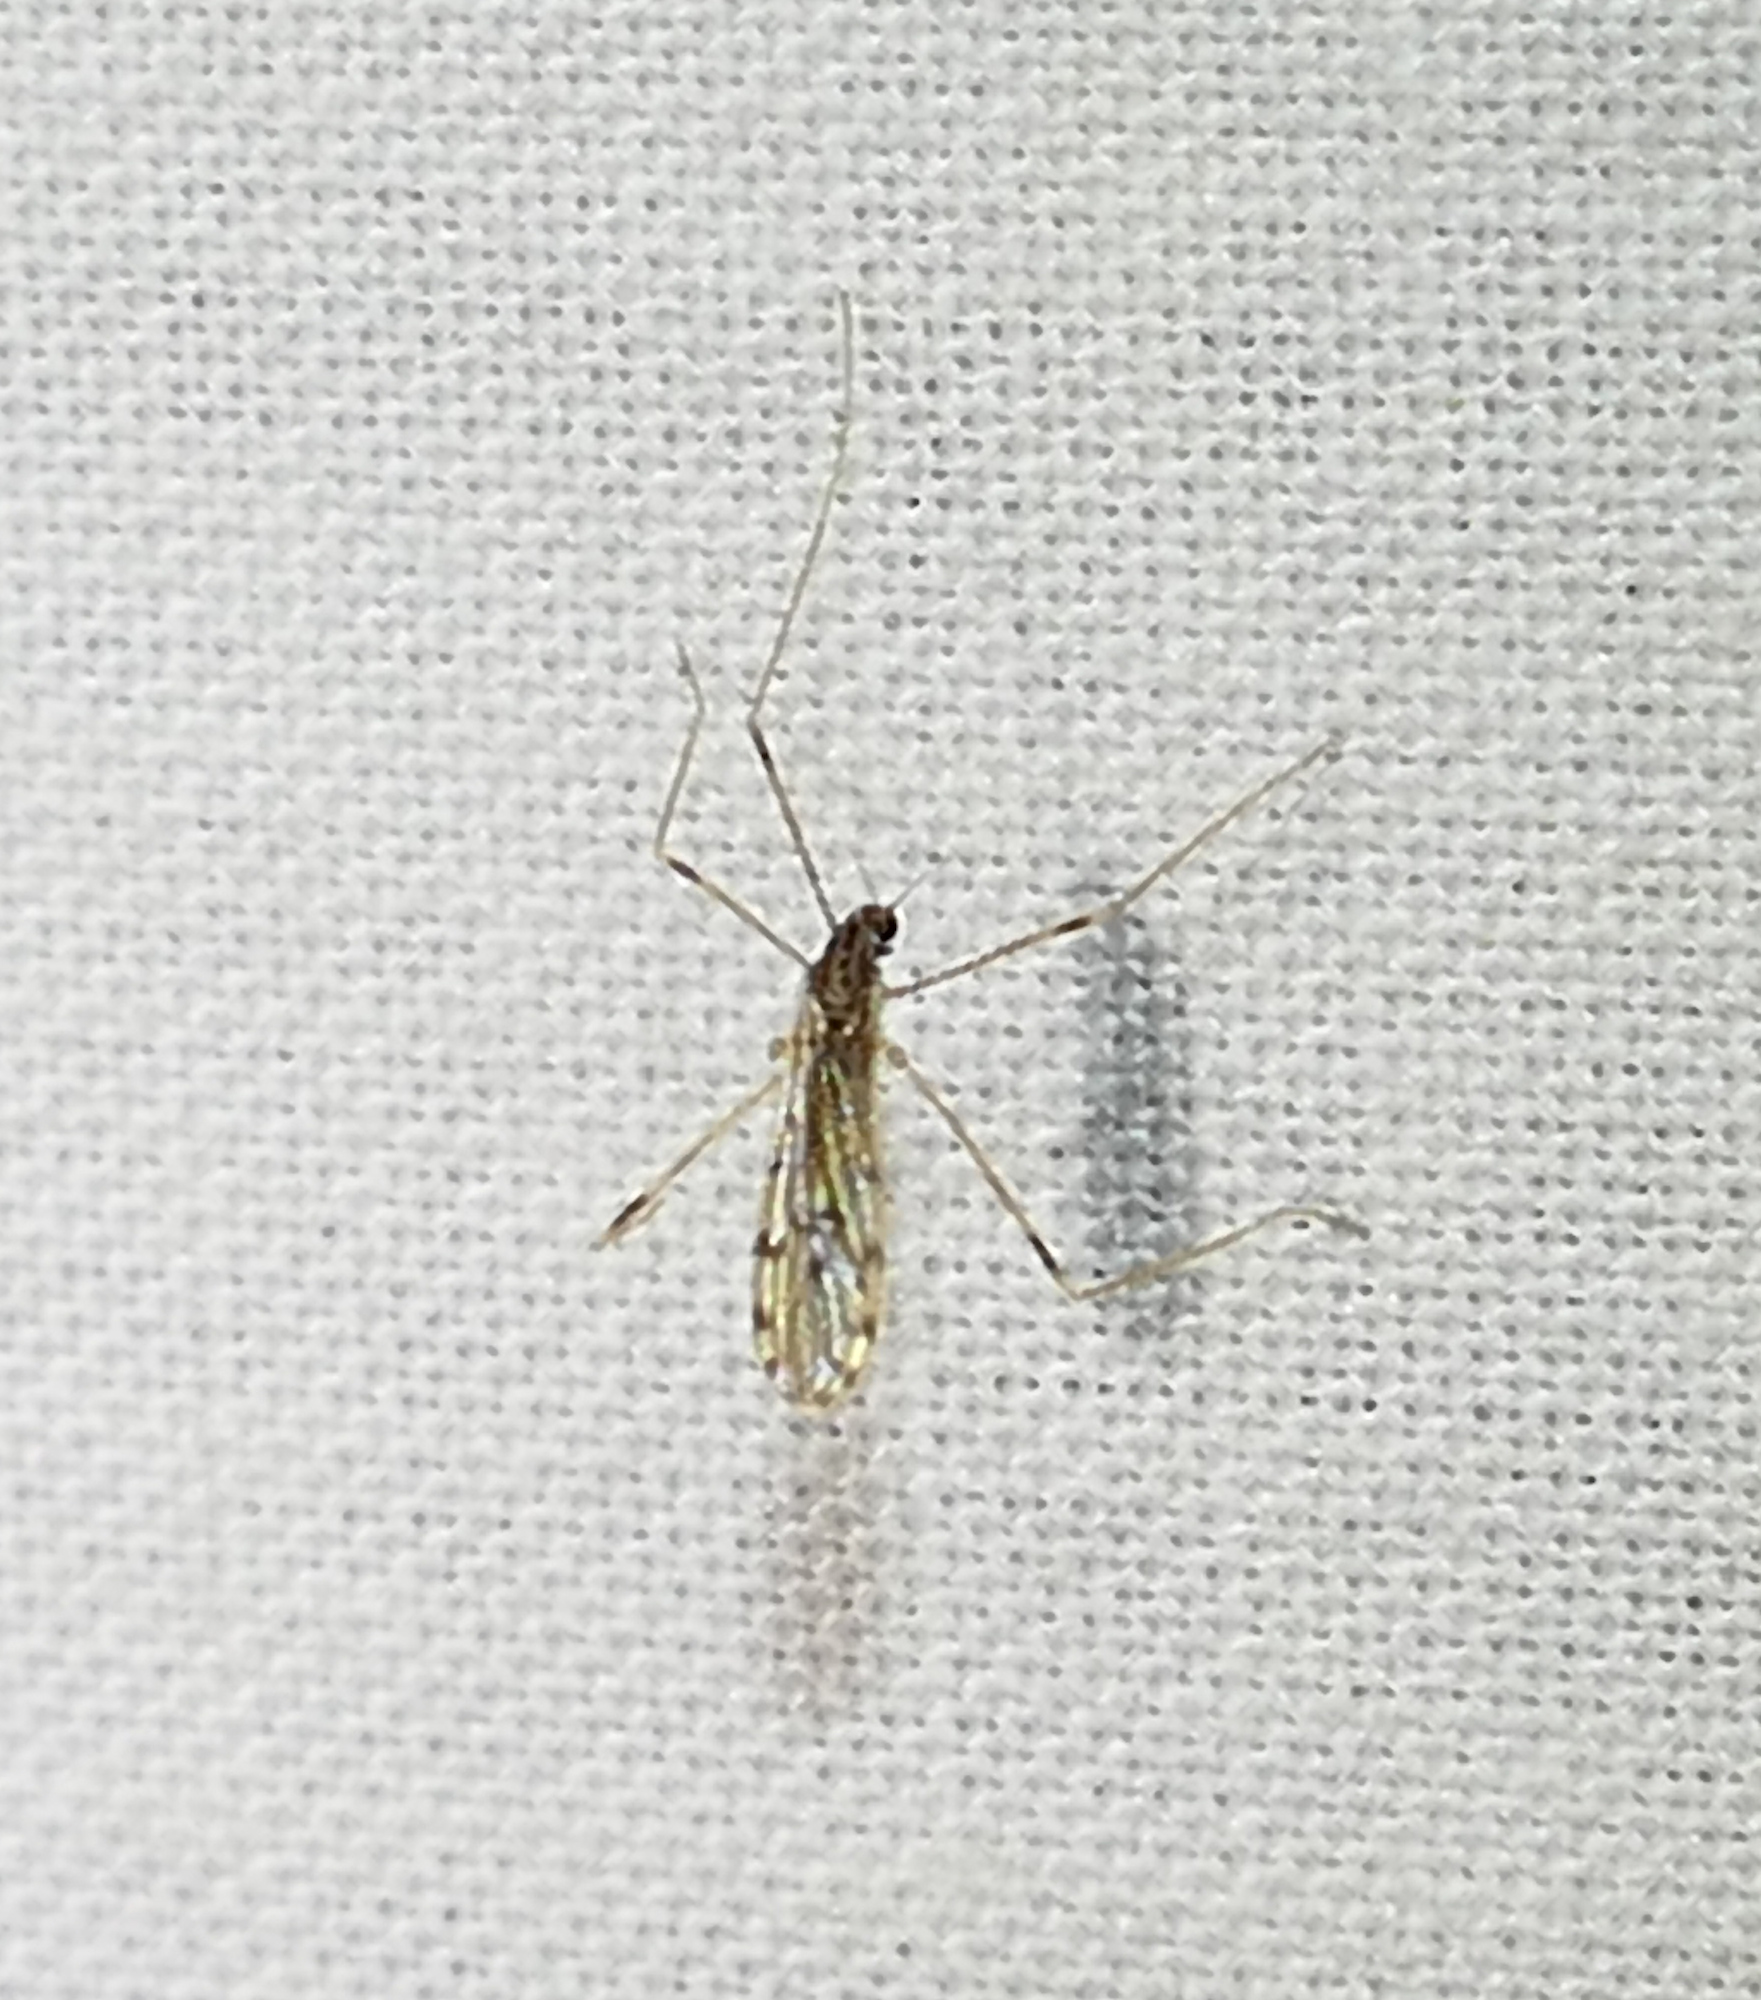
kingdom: Animalia
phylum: Arthropoda
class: Insecta
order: Diptera
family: Limoniidae
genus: Erioptera
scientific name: Erioptera parva
